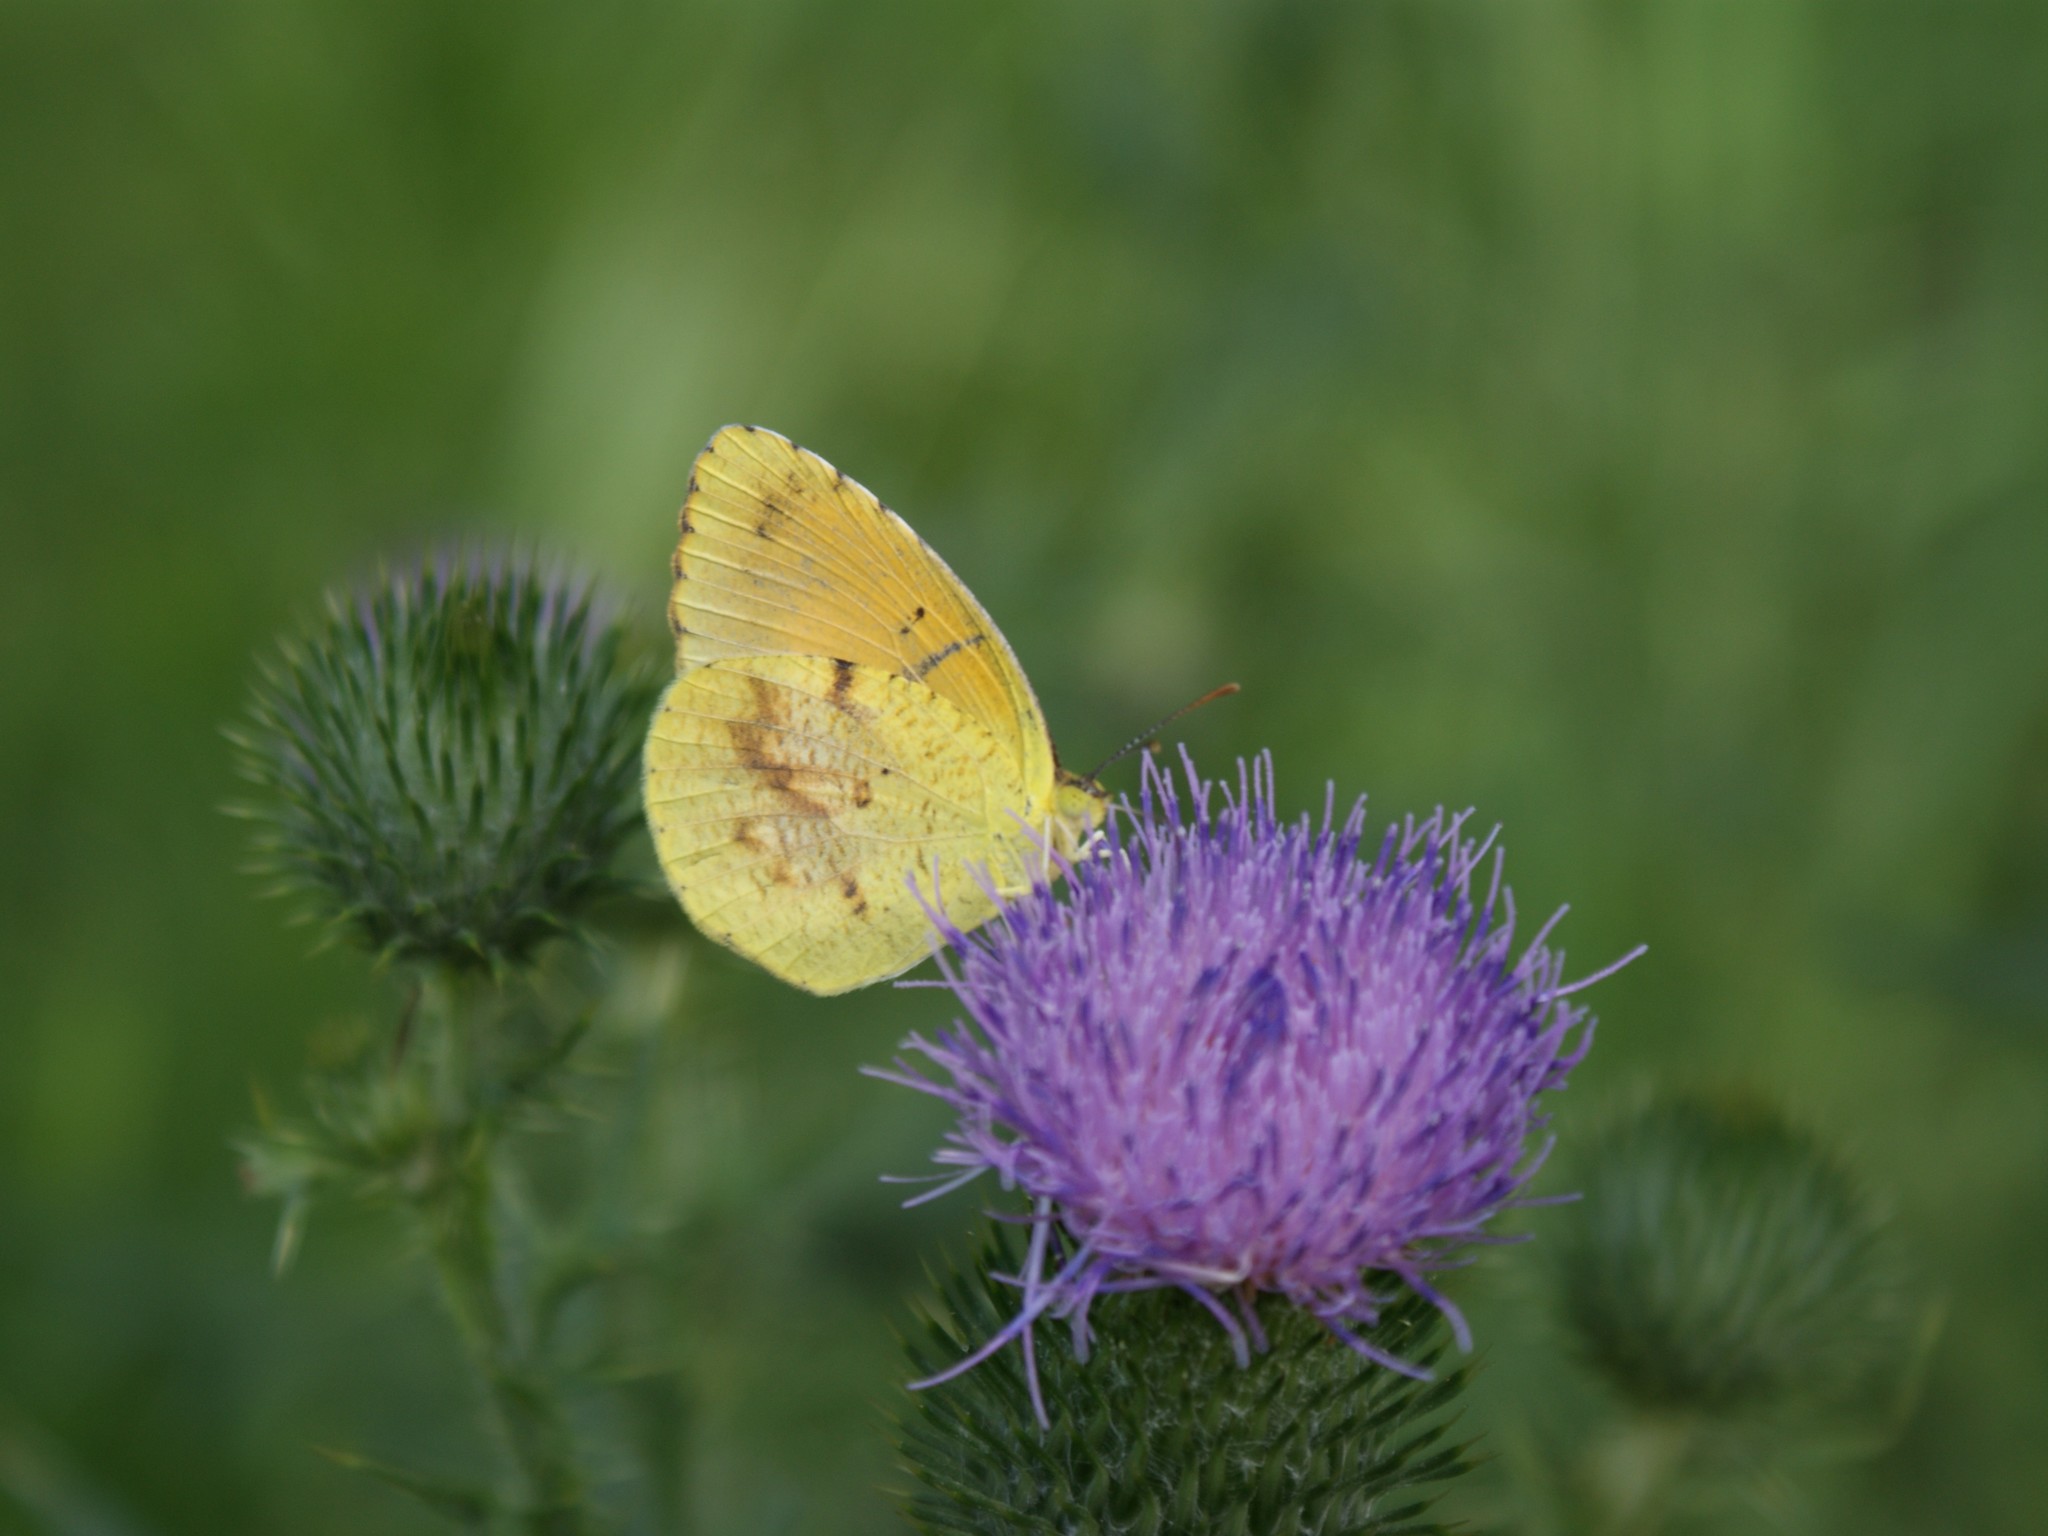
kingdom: Animalia
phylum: Arthropoda
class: Insecta
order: Lepidoptera
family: Pieridae
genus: Abaeis
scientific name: Abaeis nicippe
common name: Sleepy orange
